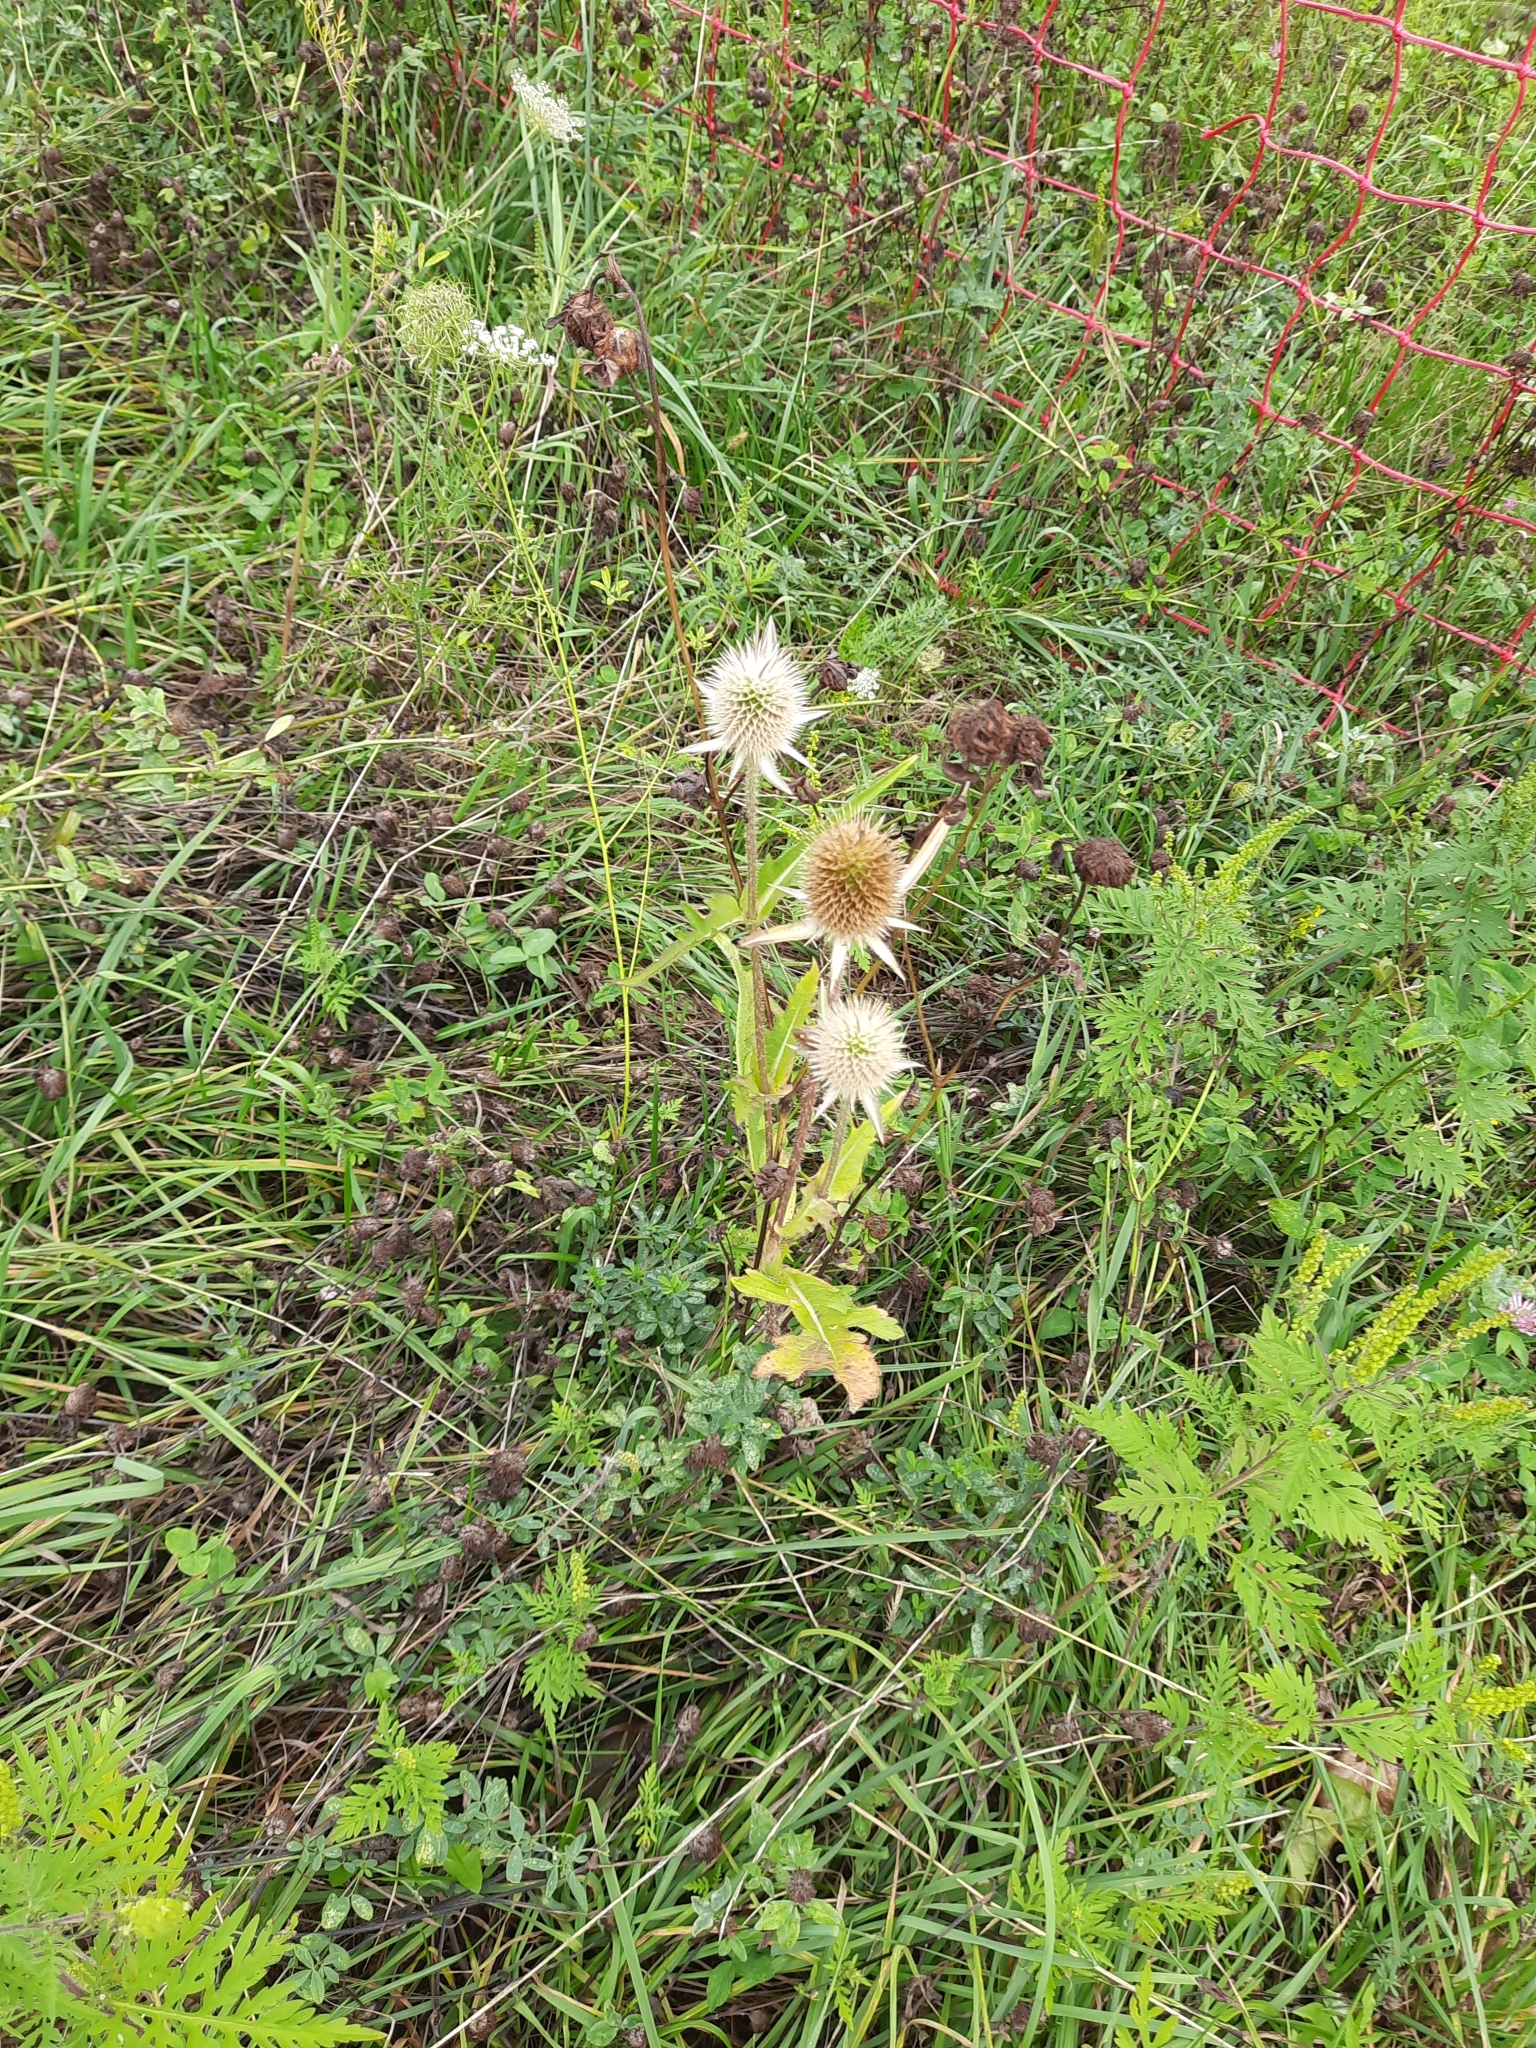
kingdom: Plantae
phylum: Tracheophyta
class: Magnoliopsida
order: Dipsacales
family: Caprifoliaceae
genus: Dipsacus
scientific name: Dipsacus laciniatus
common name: Cut-leaved teasel
